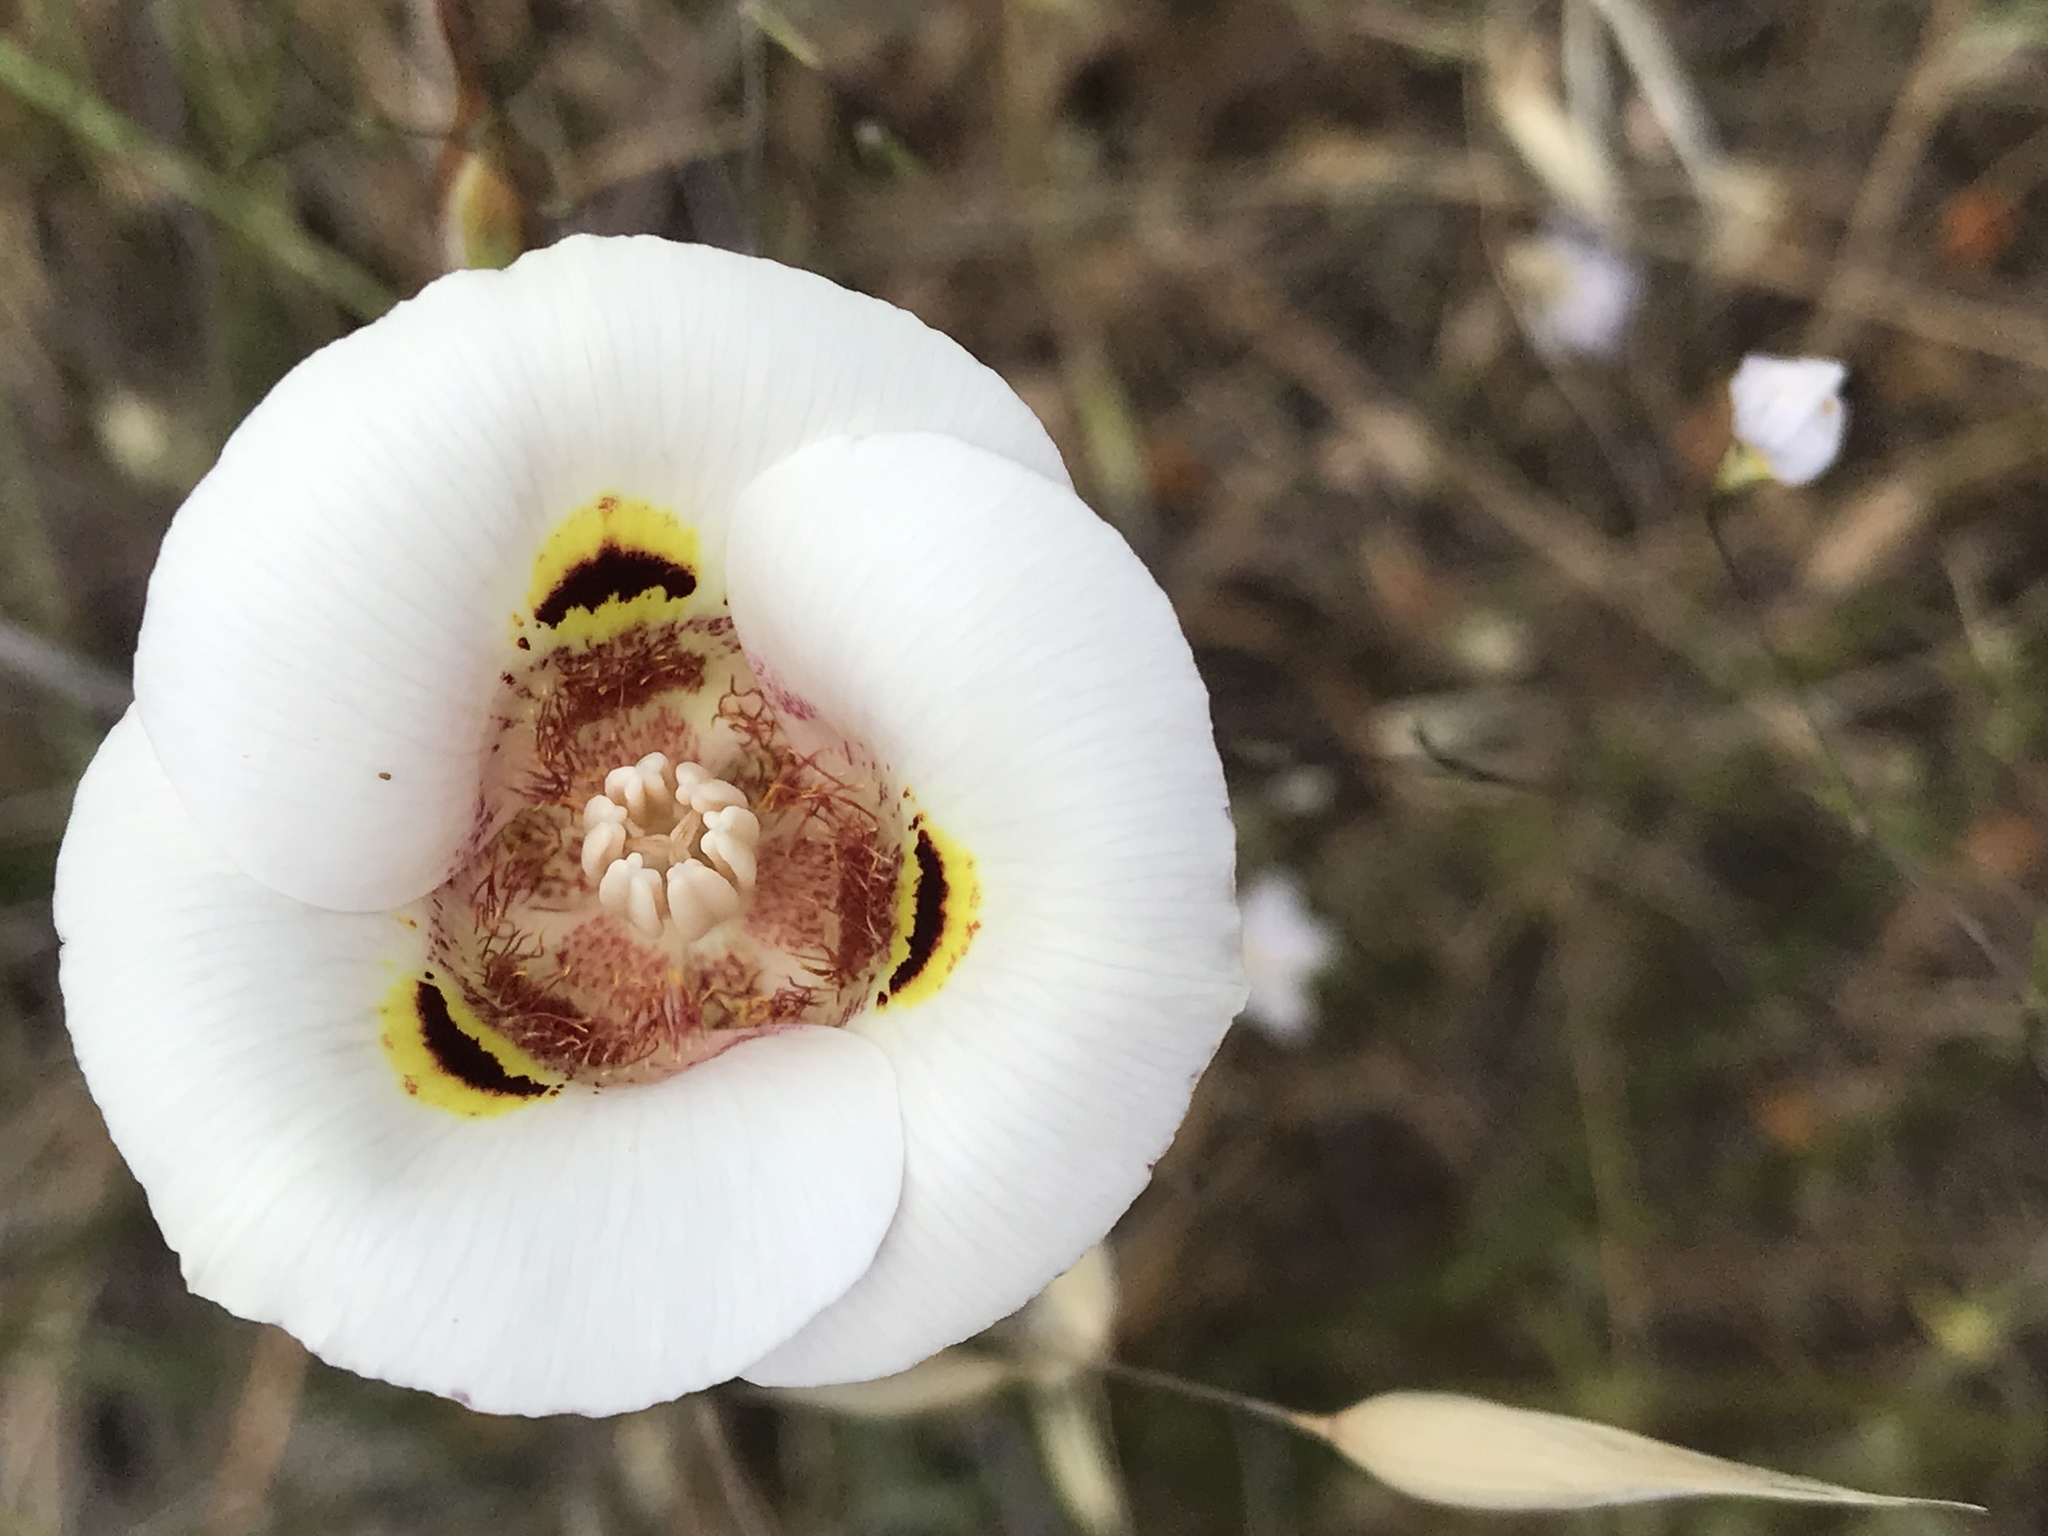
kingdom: Plantae
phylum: Tracheophyta
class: Liliopsida
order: Liliales
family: Liliaceae
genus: Calochortus
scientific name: Calochortus argillosus
